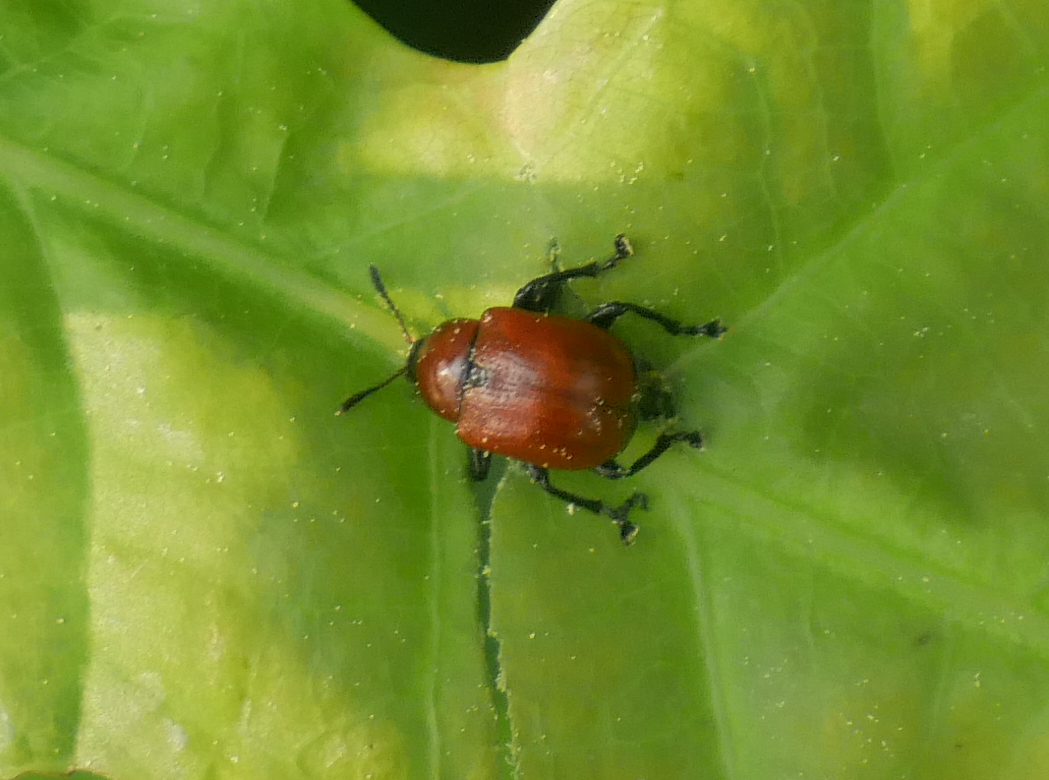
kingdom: Animalia
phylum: Arthropoda
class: Insecta
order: Coleoptera
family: Attelabidae
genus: Attelabus
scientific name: Attelabus nitens
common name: Oak leaf-roller
